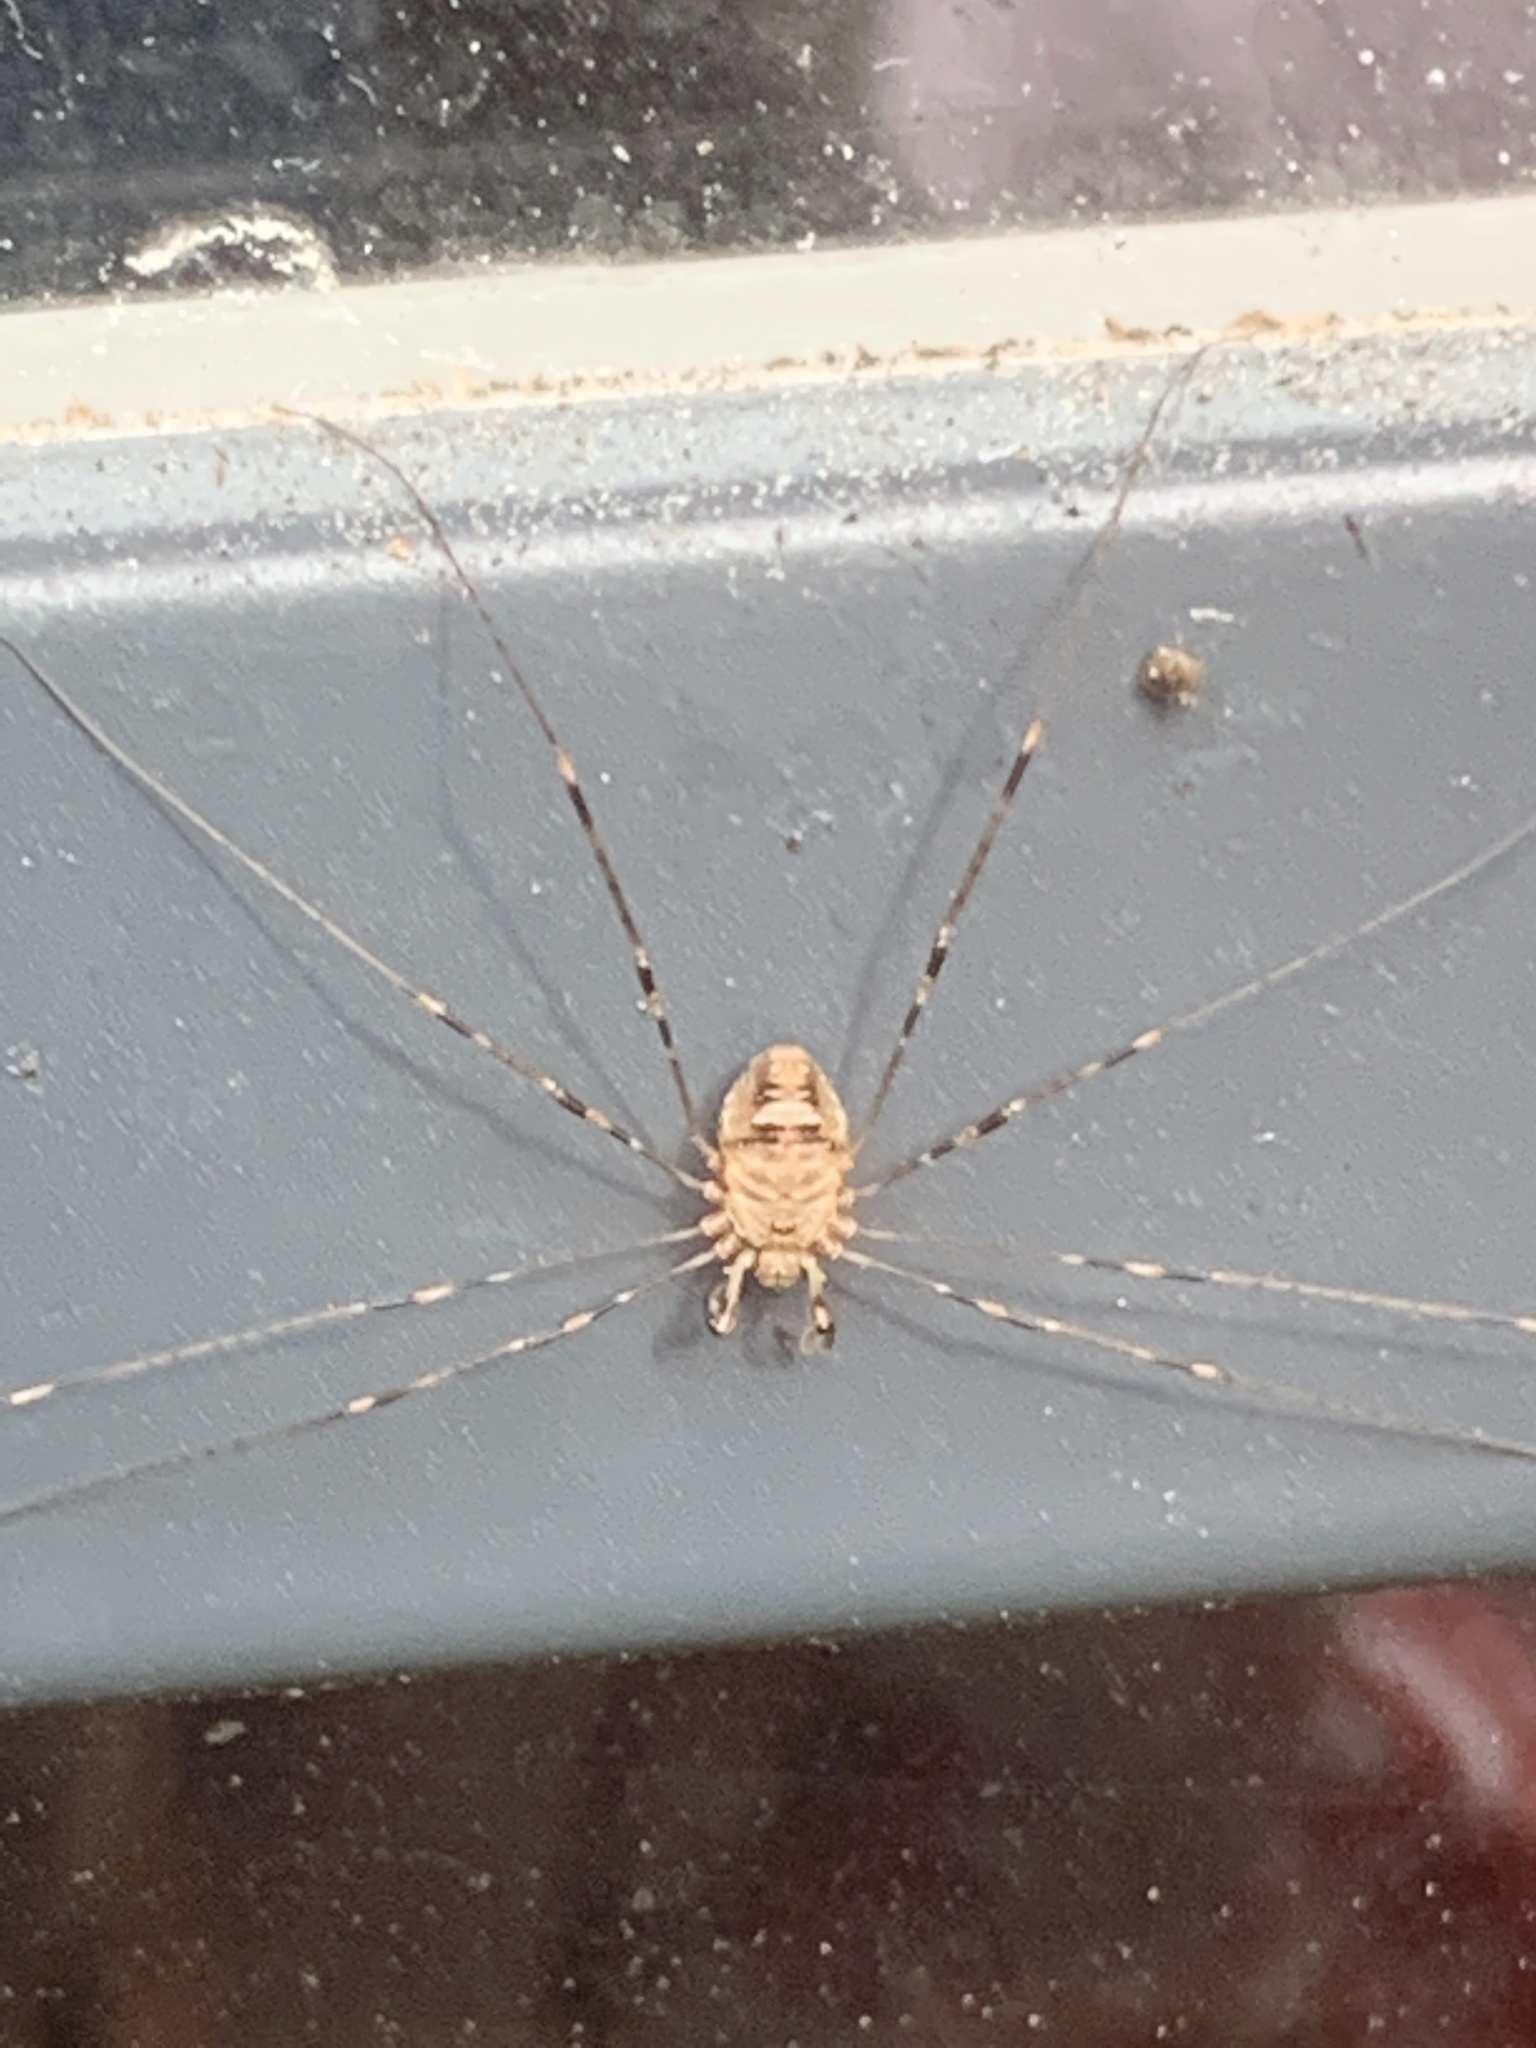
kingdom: Animalia
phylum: Arthropoda
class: Arachnida
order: Opiliones
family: Phalangiidae
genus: Dicranopalpus
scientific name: Dicranopalpus ramosus
